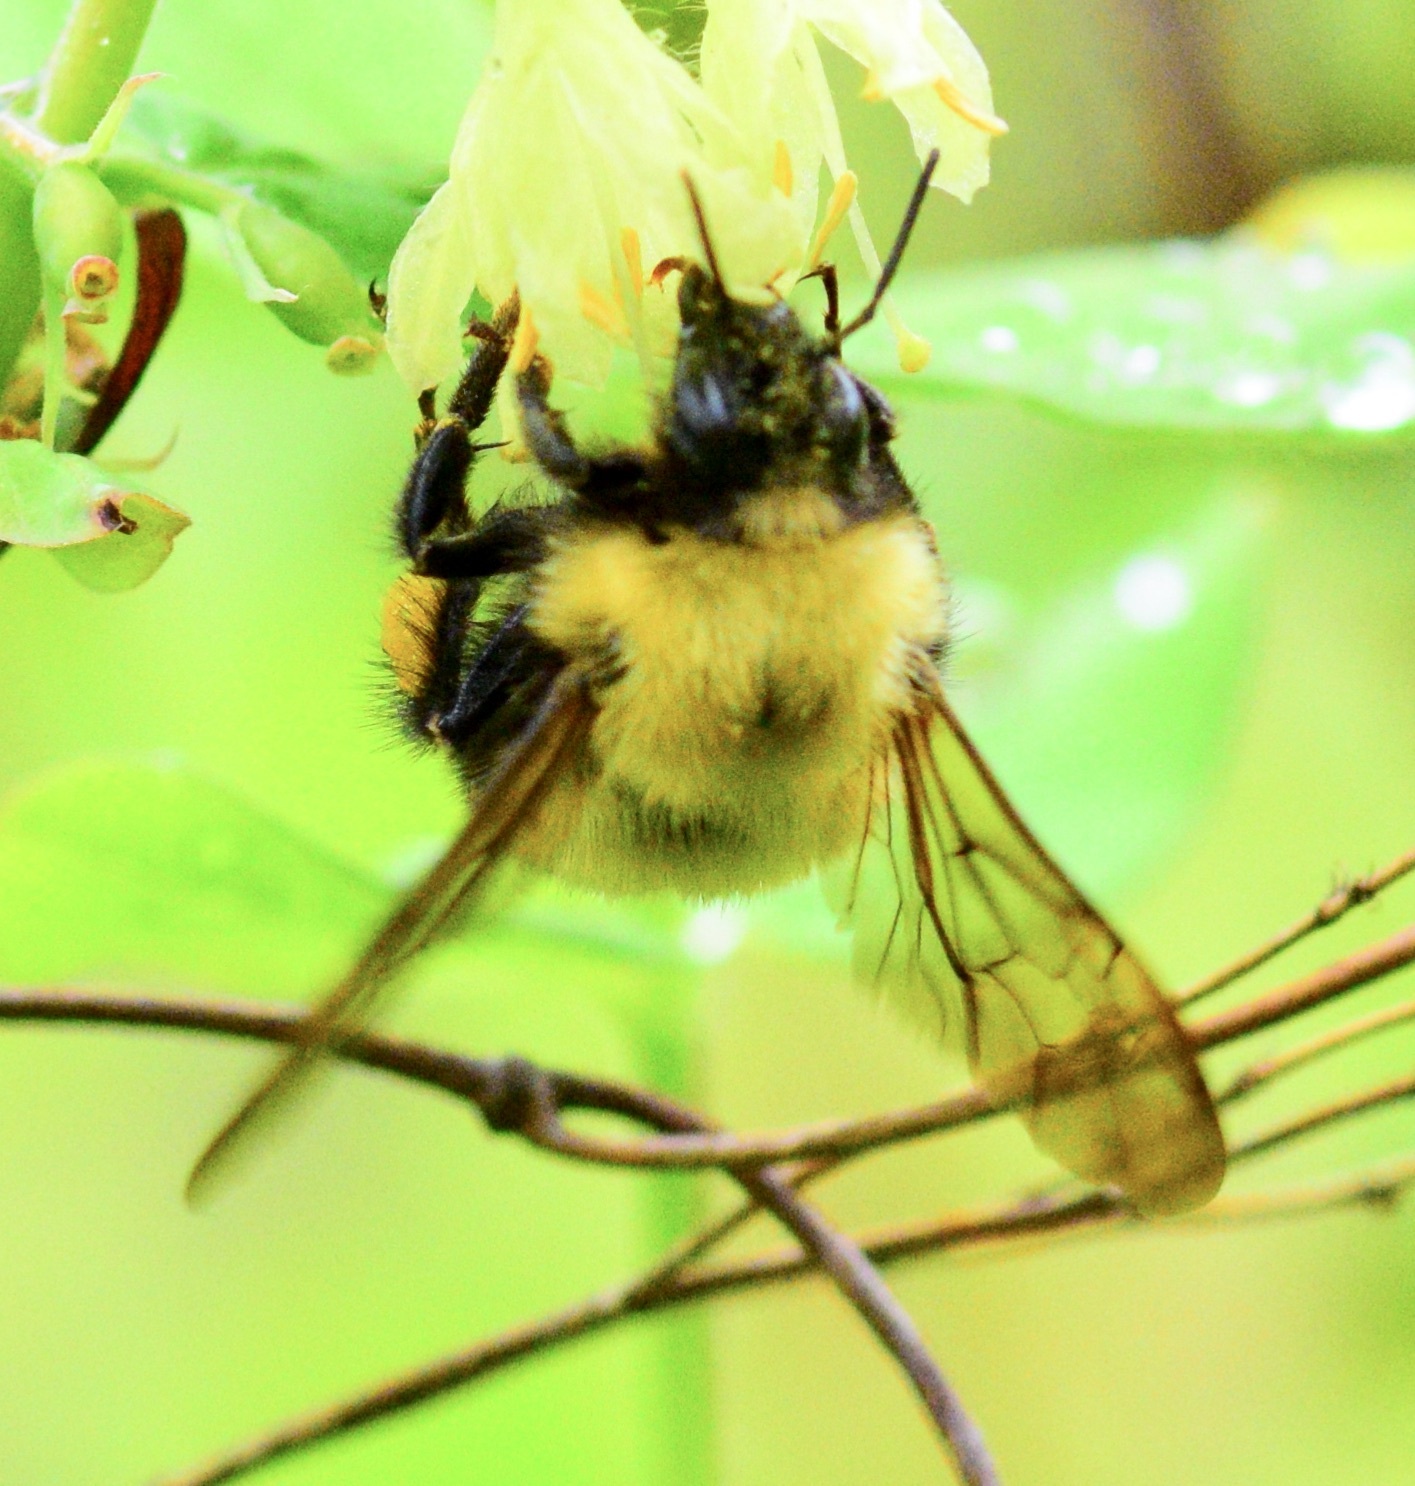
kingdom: Animalia
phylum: Arthropoda
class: Insecta
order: Hymenoptera
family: Apidae
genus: Bombus
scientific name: Bombus perplexus
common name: Confusing bumble bee
